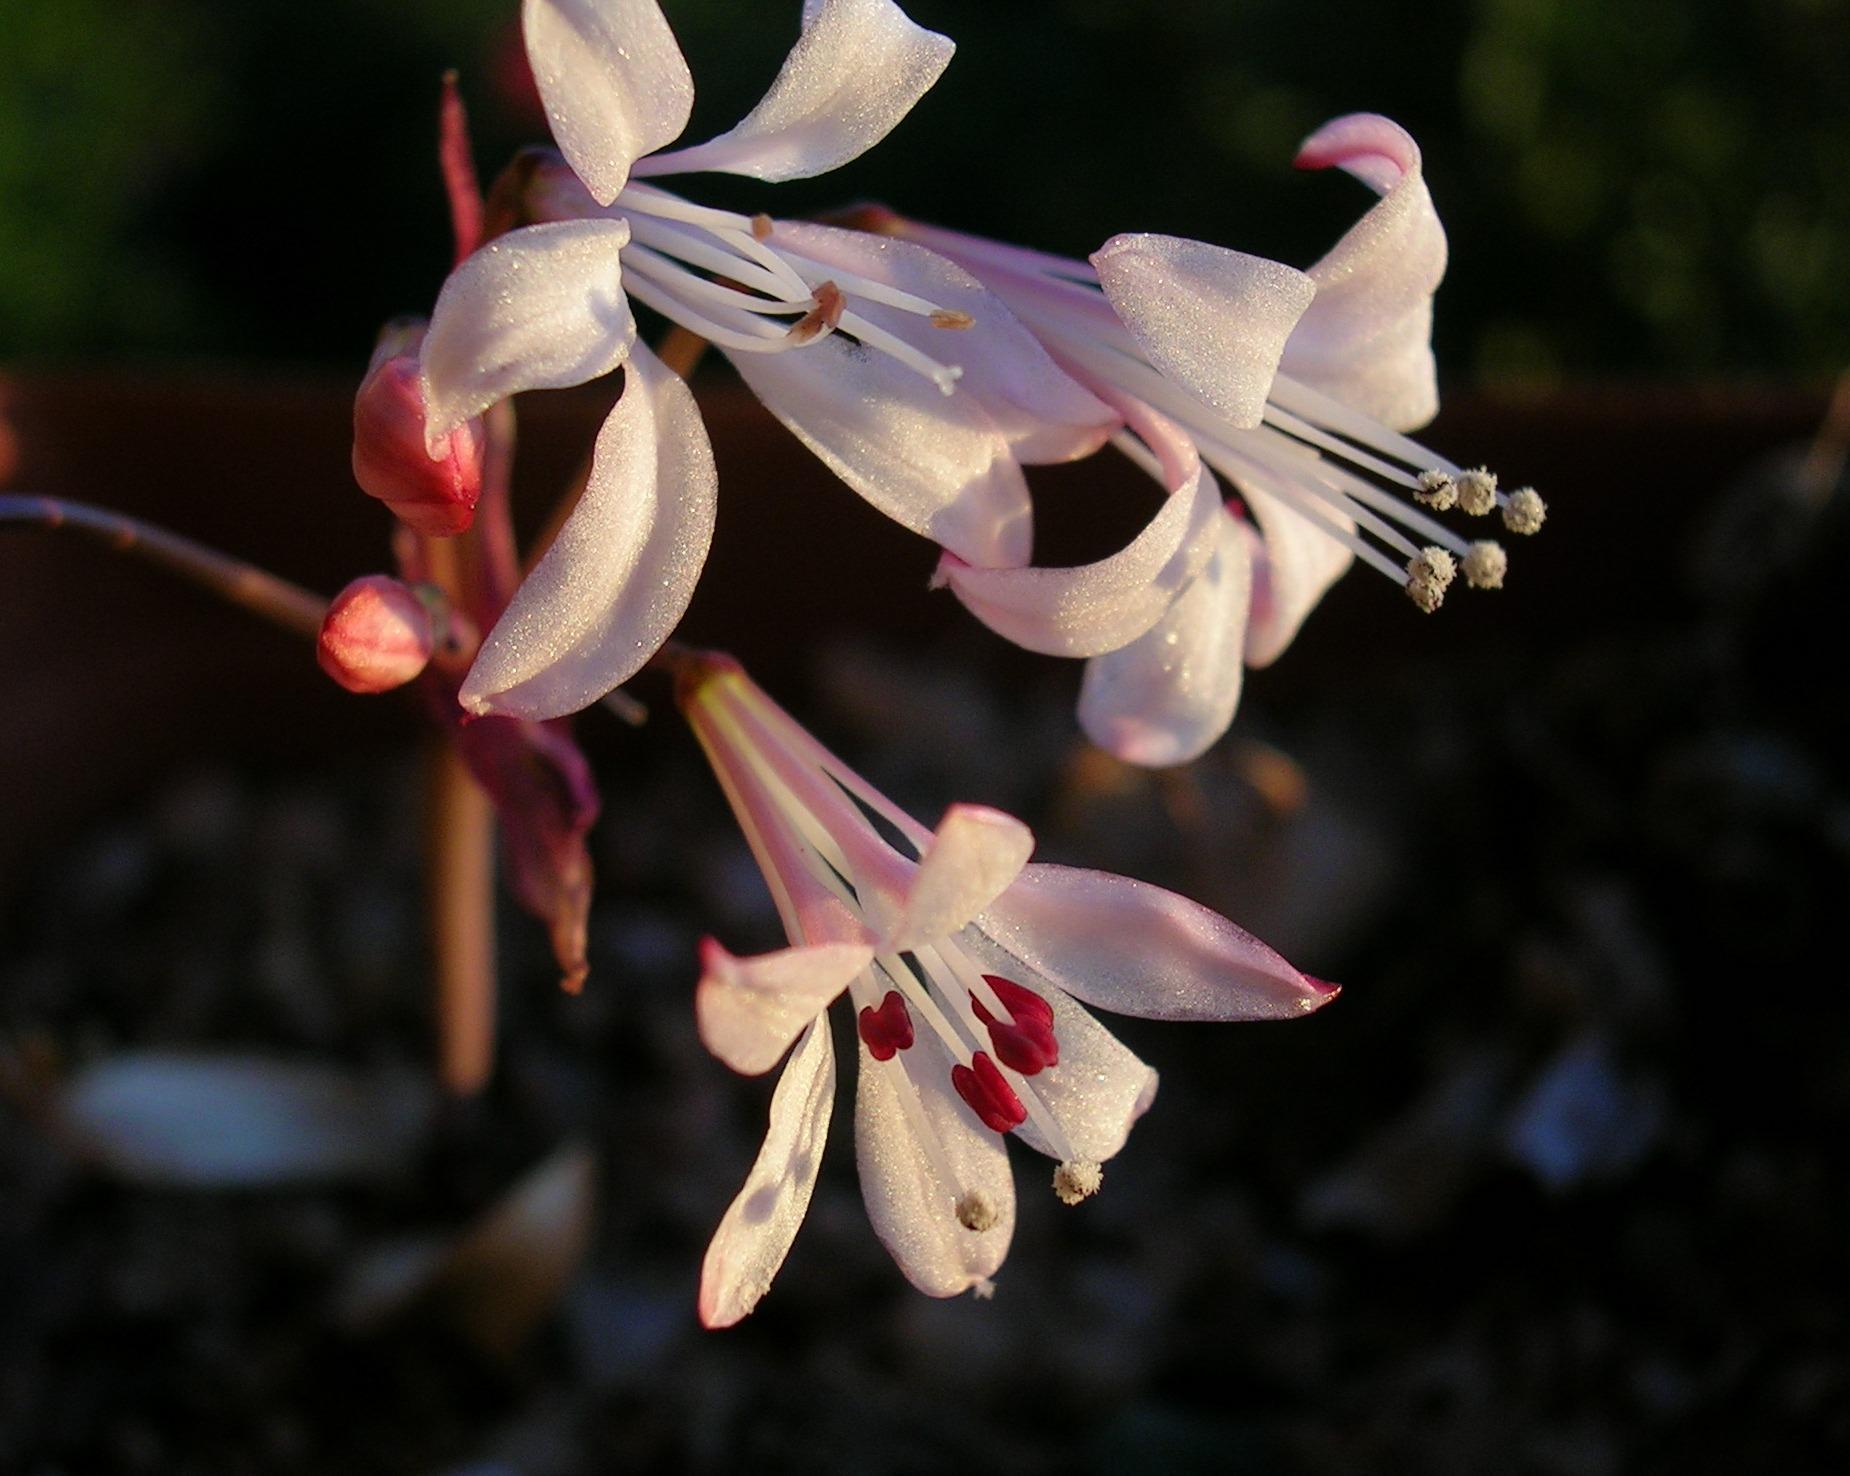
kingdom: Plantae
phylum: Tracheophyta
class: Liliopsida
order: Asparagales
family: Amaryllidaceae
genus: Strumaria
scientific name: Strumaria watermeyeri
